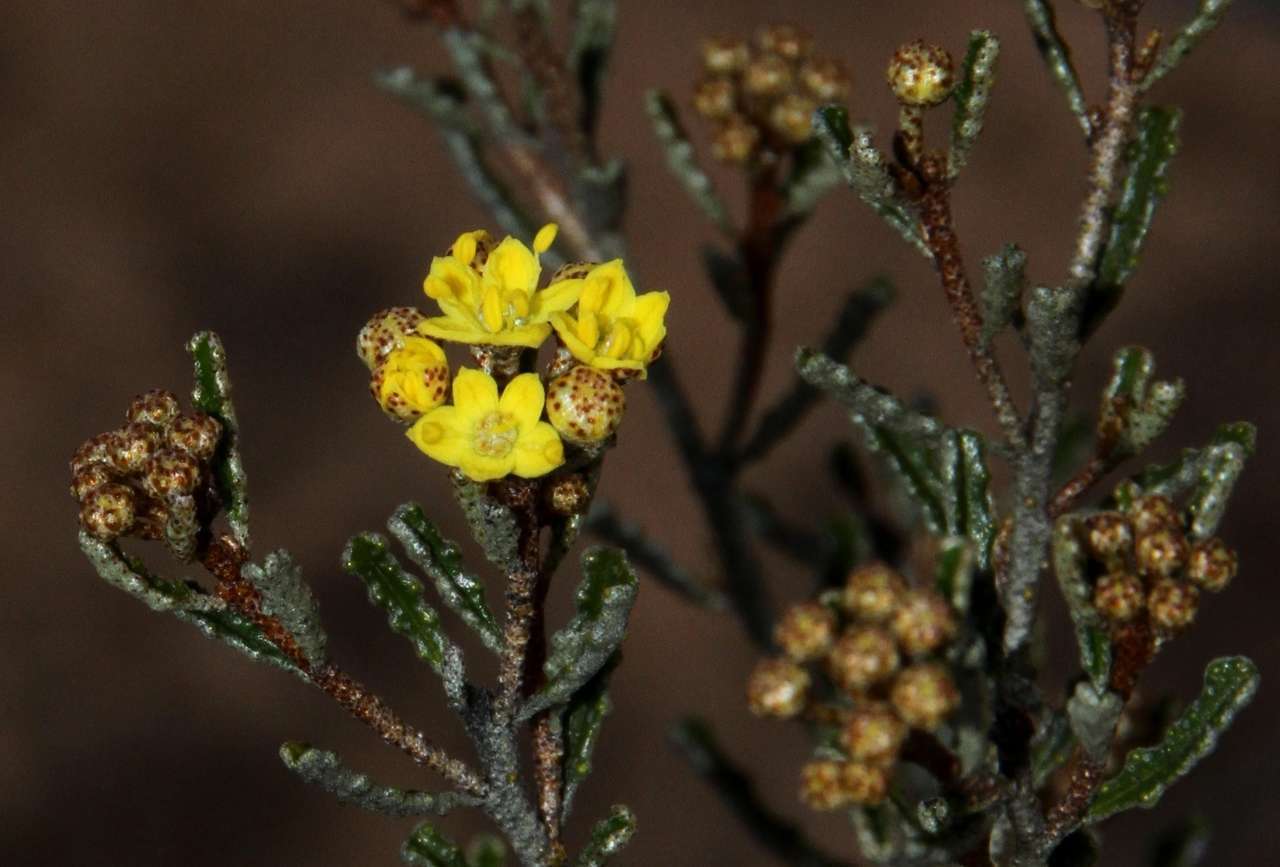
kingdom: Plantae
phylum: Tracheophyta
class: Magnoliopsida
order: Sapindales
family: Rutaceae
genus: Phebalium
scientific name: Phebalium bullatum
